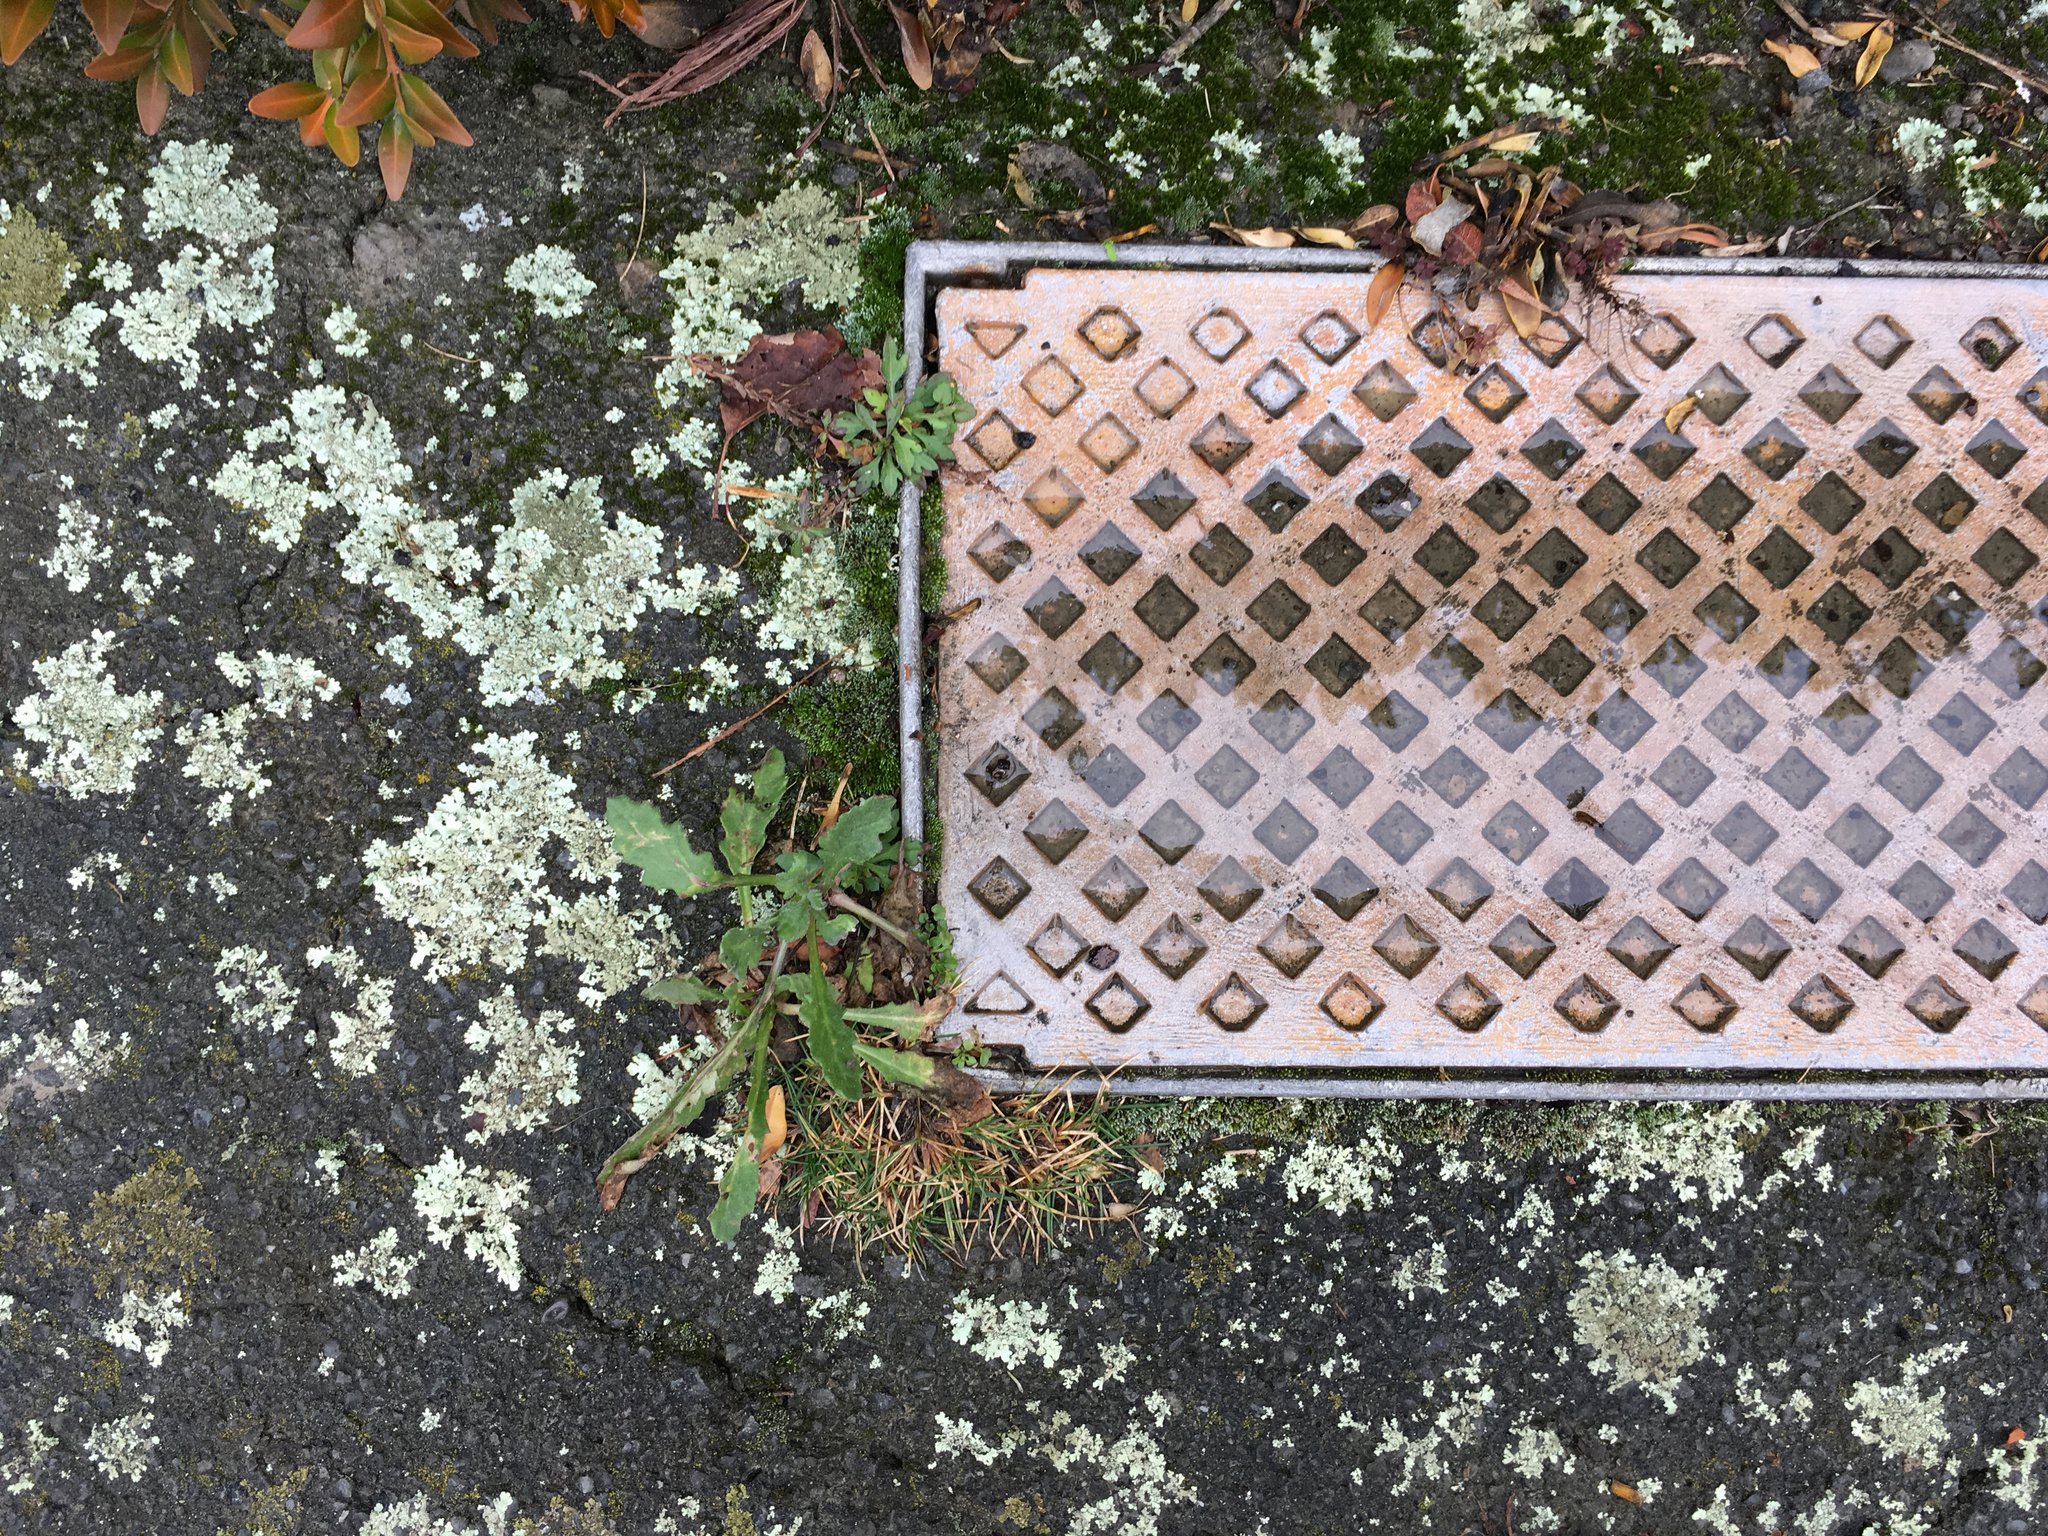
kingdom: Plantae
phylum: Tracheophyta
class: Magnoliopsida
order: Asterales
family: Asteraceae
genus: Senecio
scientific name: Senecio glomeratus
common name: Cutleaf burnweed
